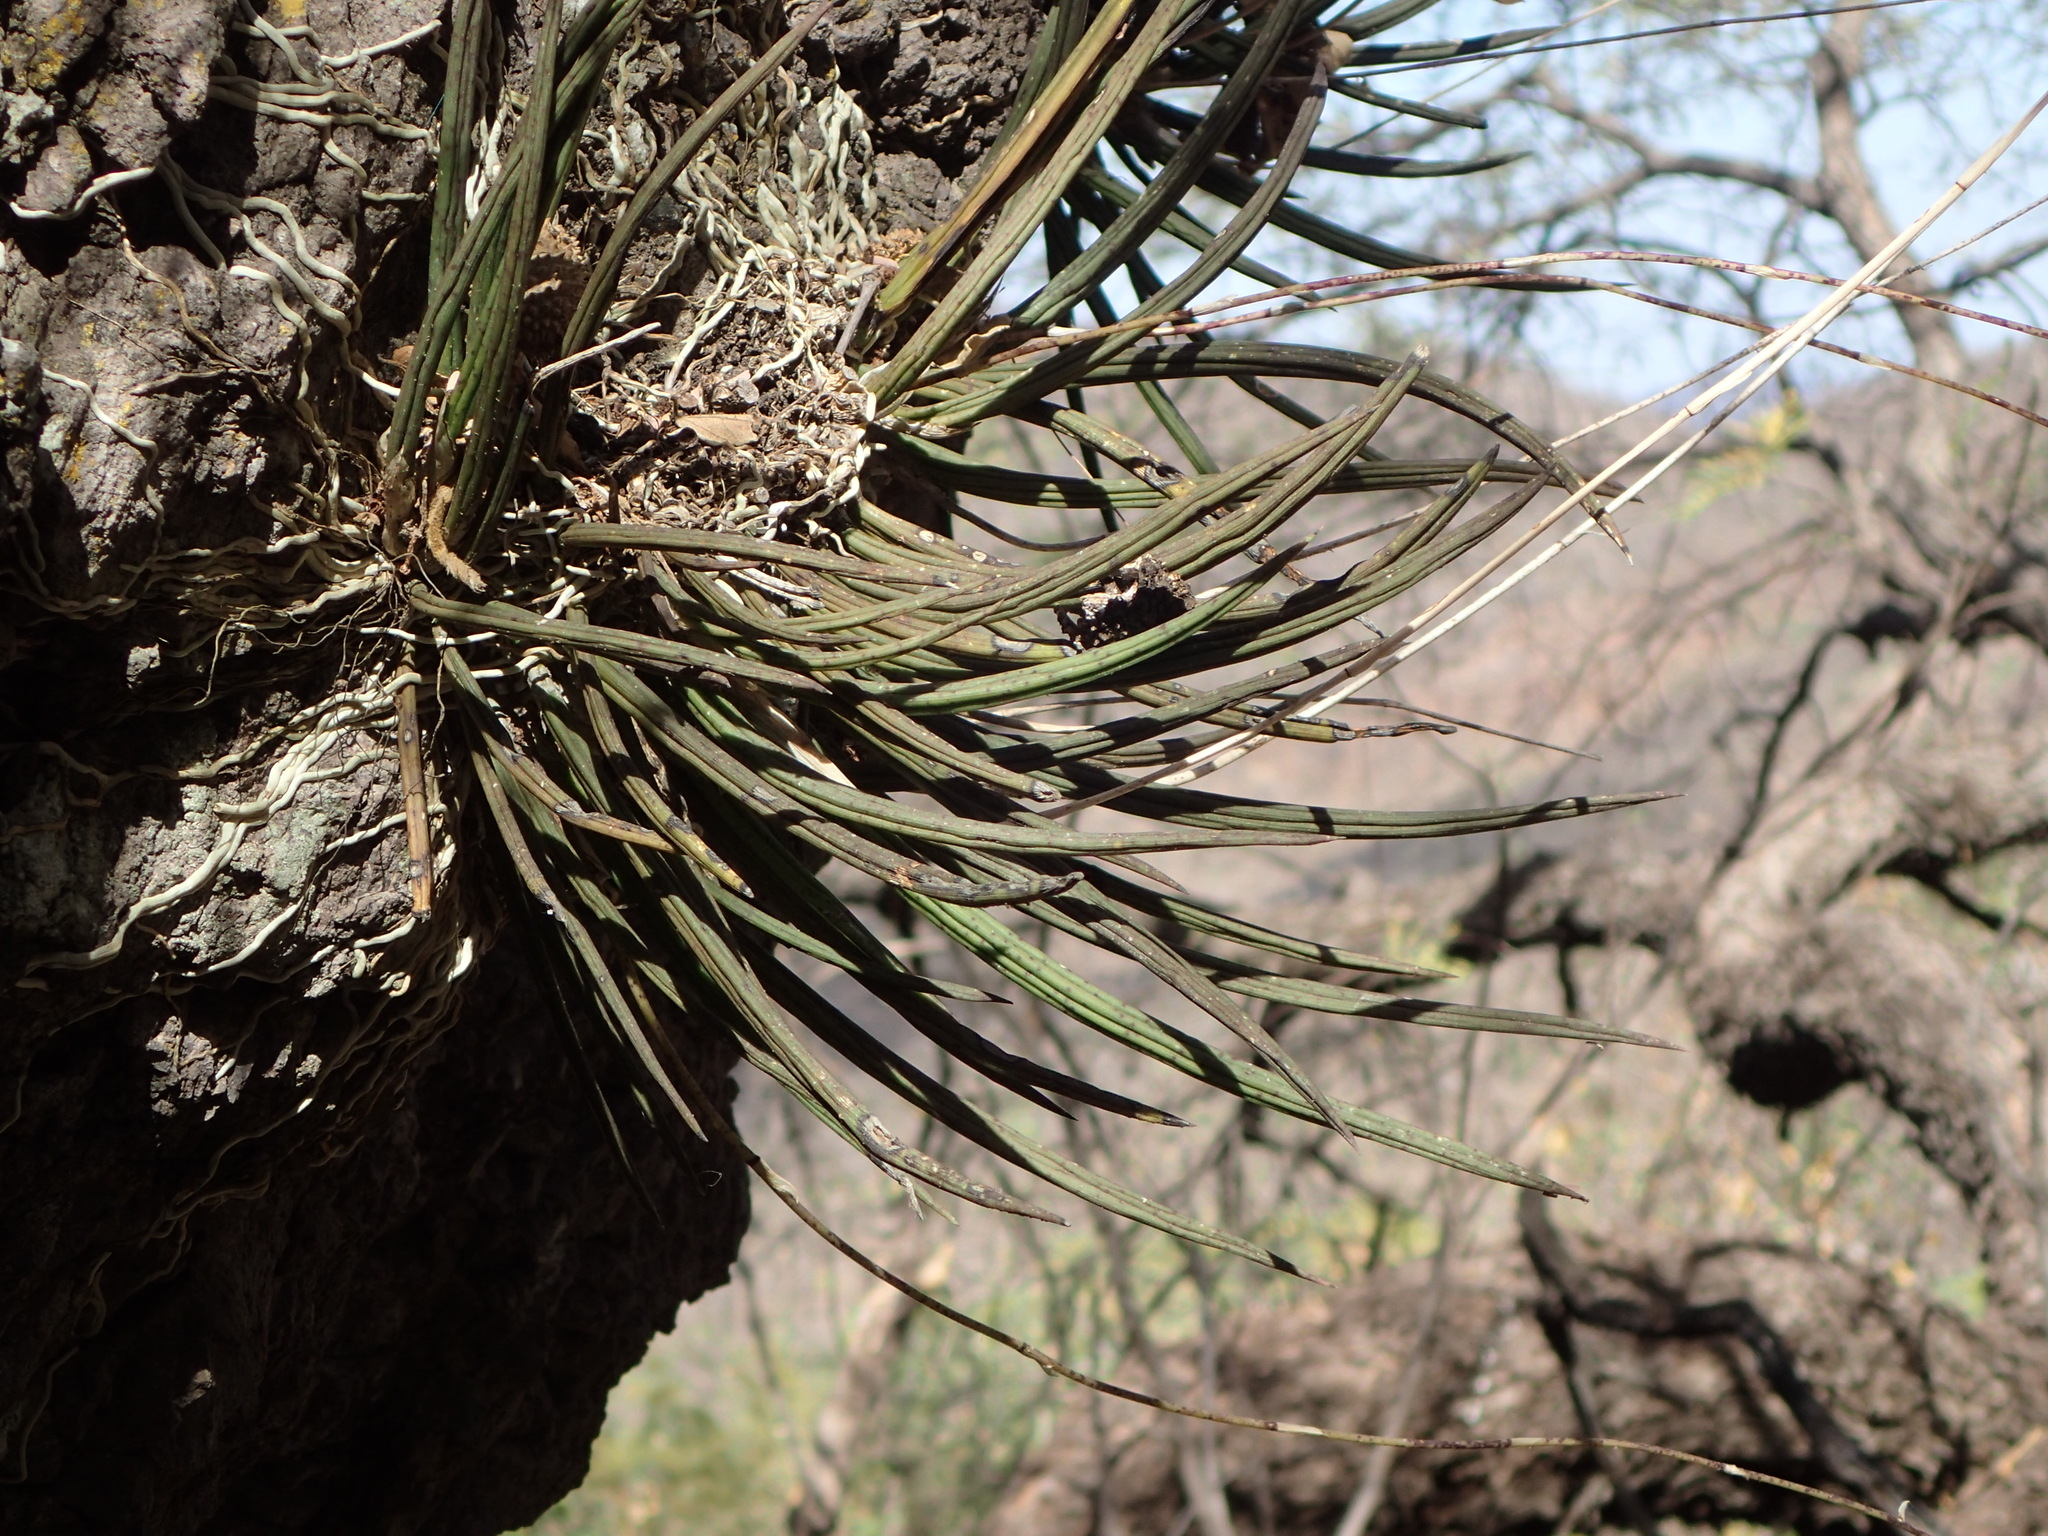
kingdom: Plantae
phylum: Tracheophyta
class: Liliopsida
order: Asparagales
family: Orchidaceae
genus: Trichocentrum
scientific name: Trichocentrum leptotifolium
